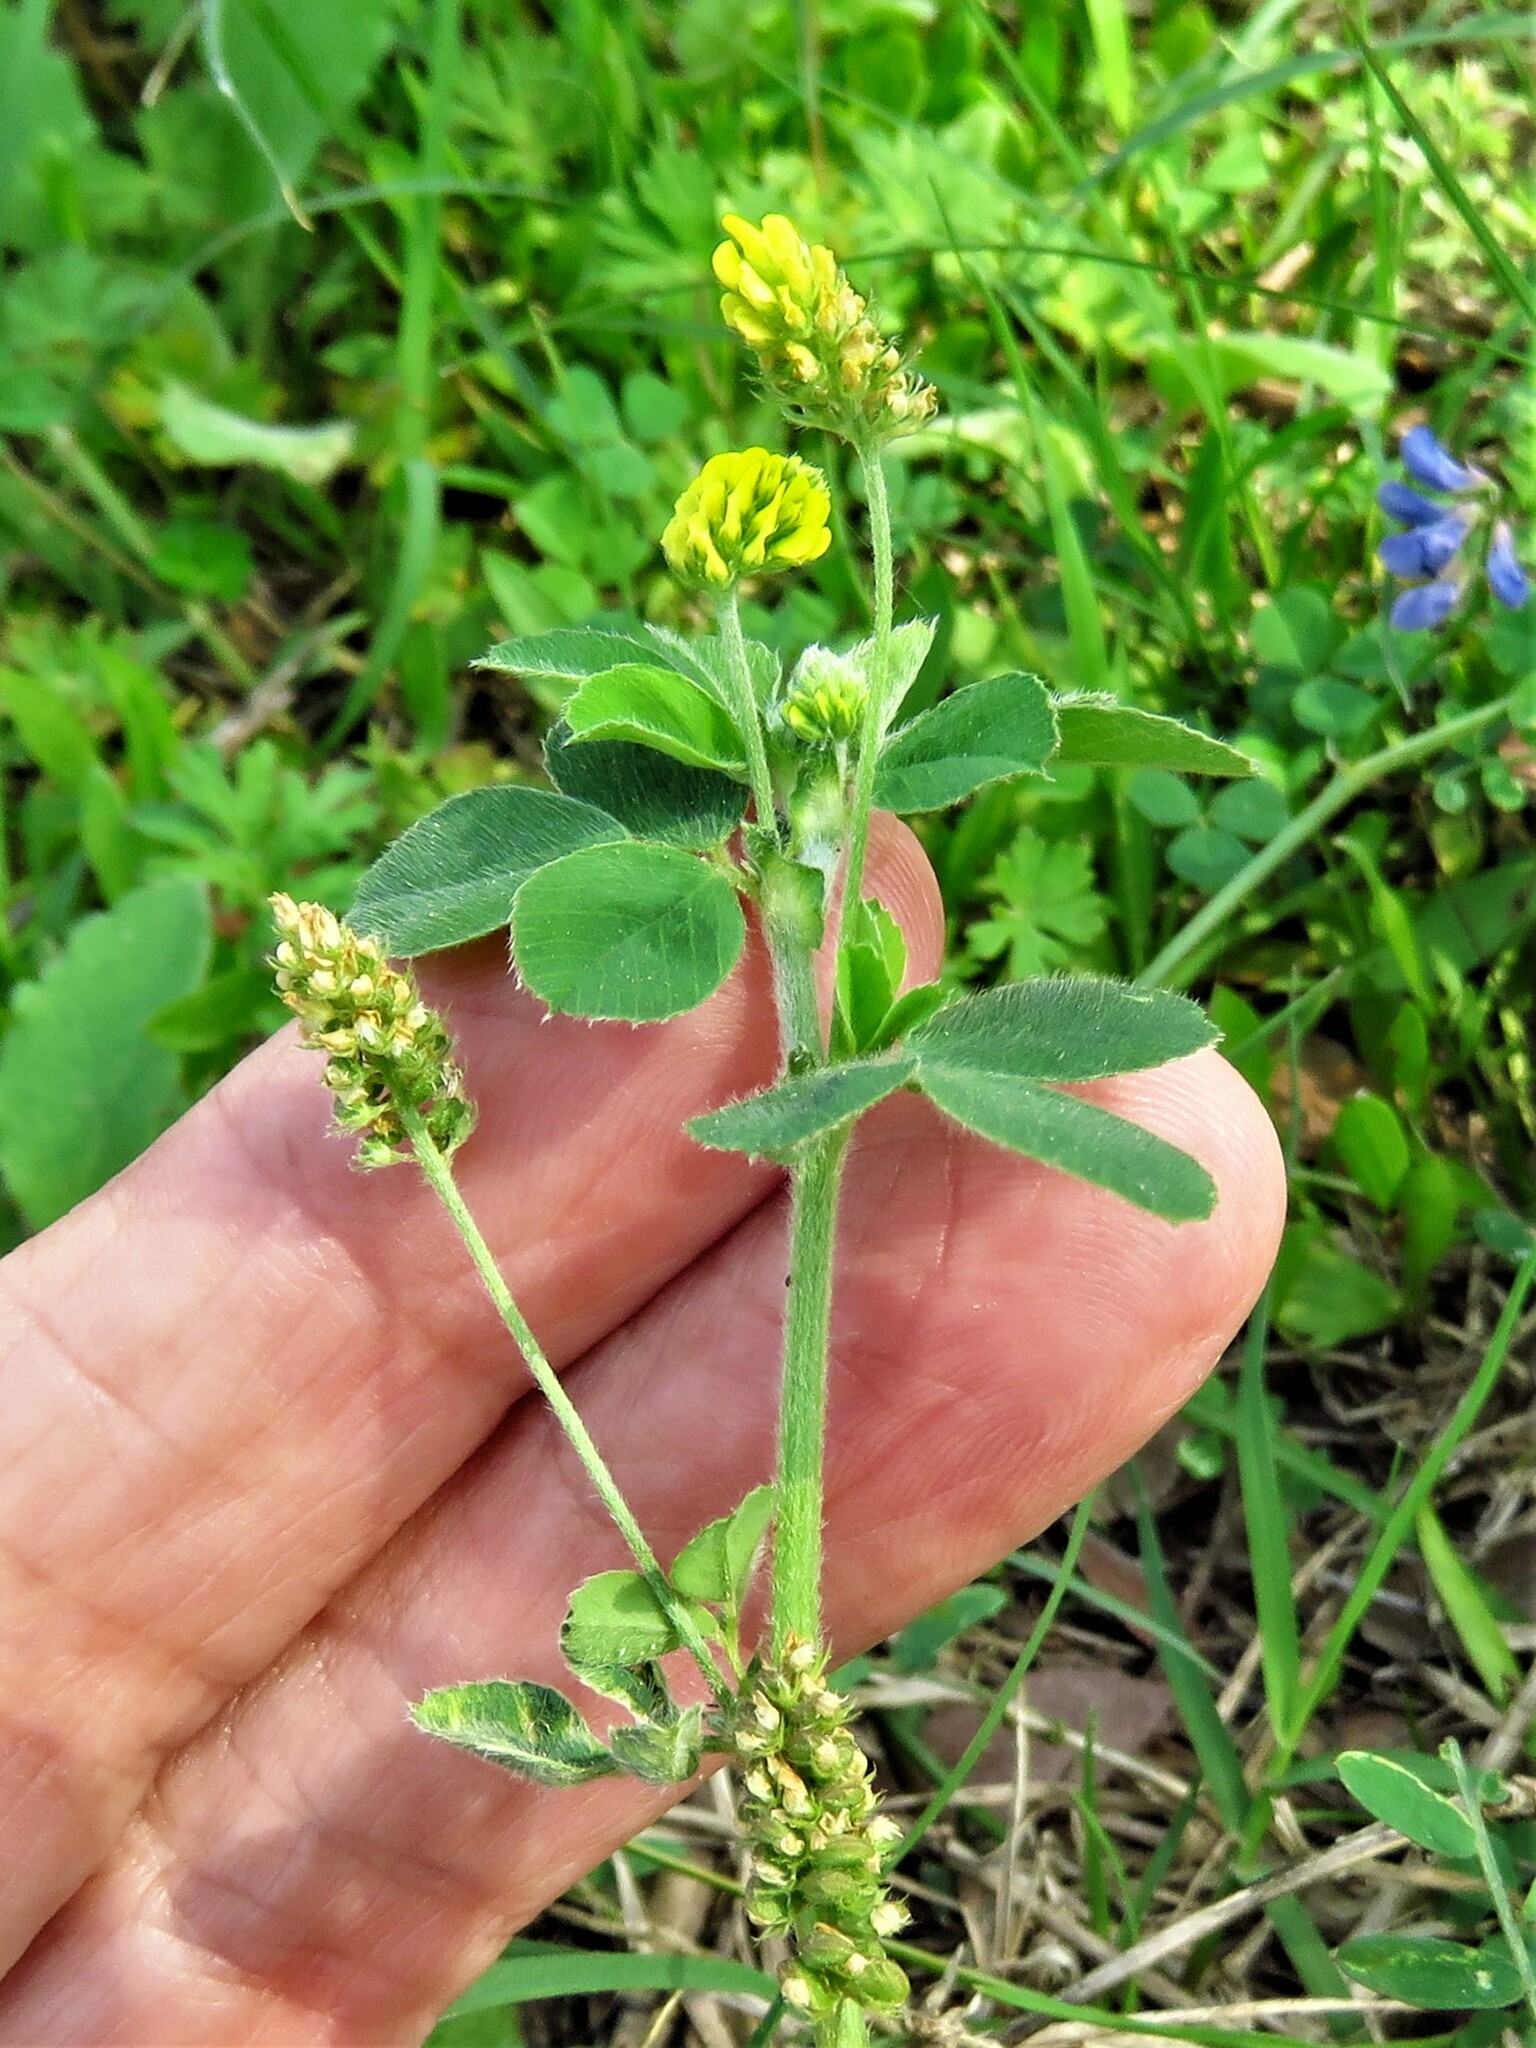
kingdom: Plantae
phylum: Tracheophyta
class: Magnoliopsida
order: Fabales
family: Fabaceae
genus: Medicago
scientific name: Medicago lupulina
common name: Black medick
